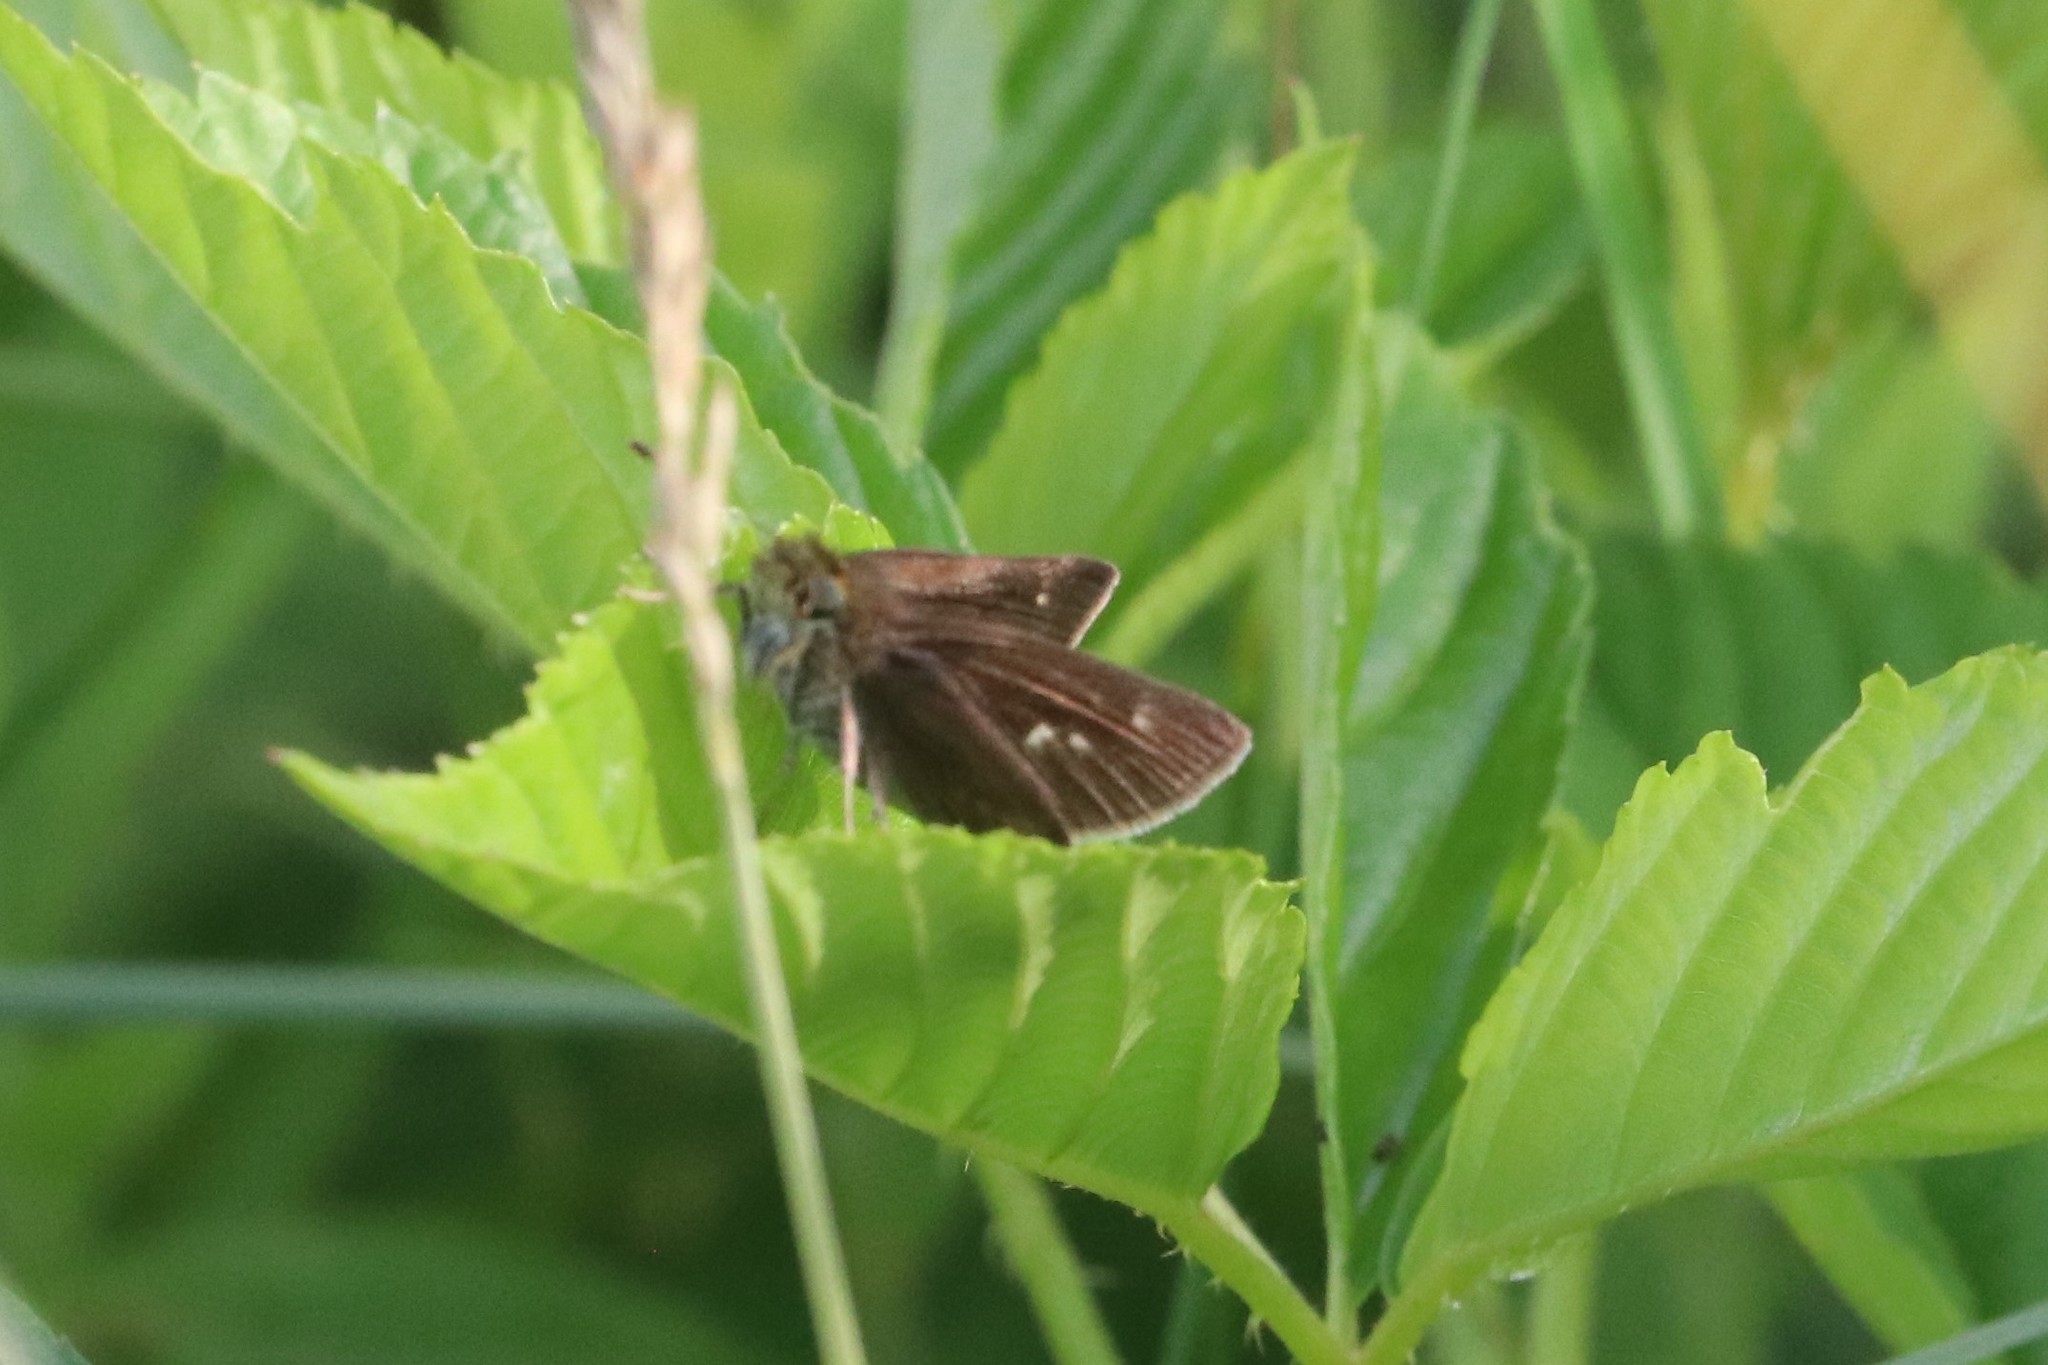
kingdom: Animalia
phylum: Arthropoda
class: Insecta
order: Lepidoptera
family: Hesperiidae
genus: Euphyes
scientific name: Euphyes vestris
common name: Dun skipper
